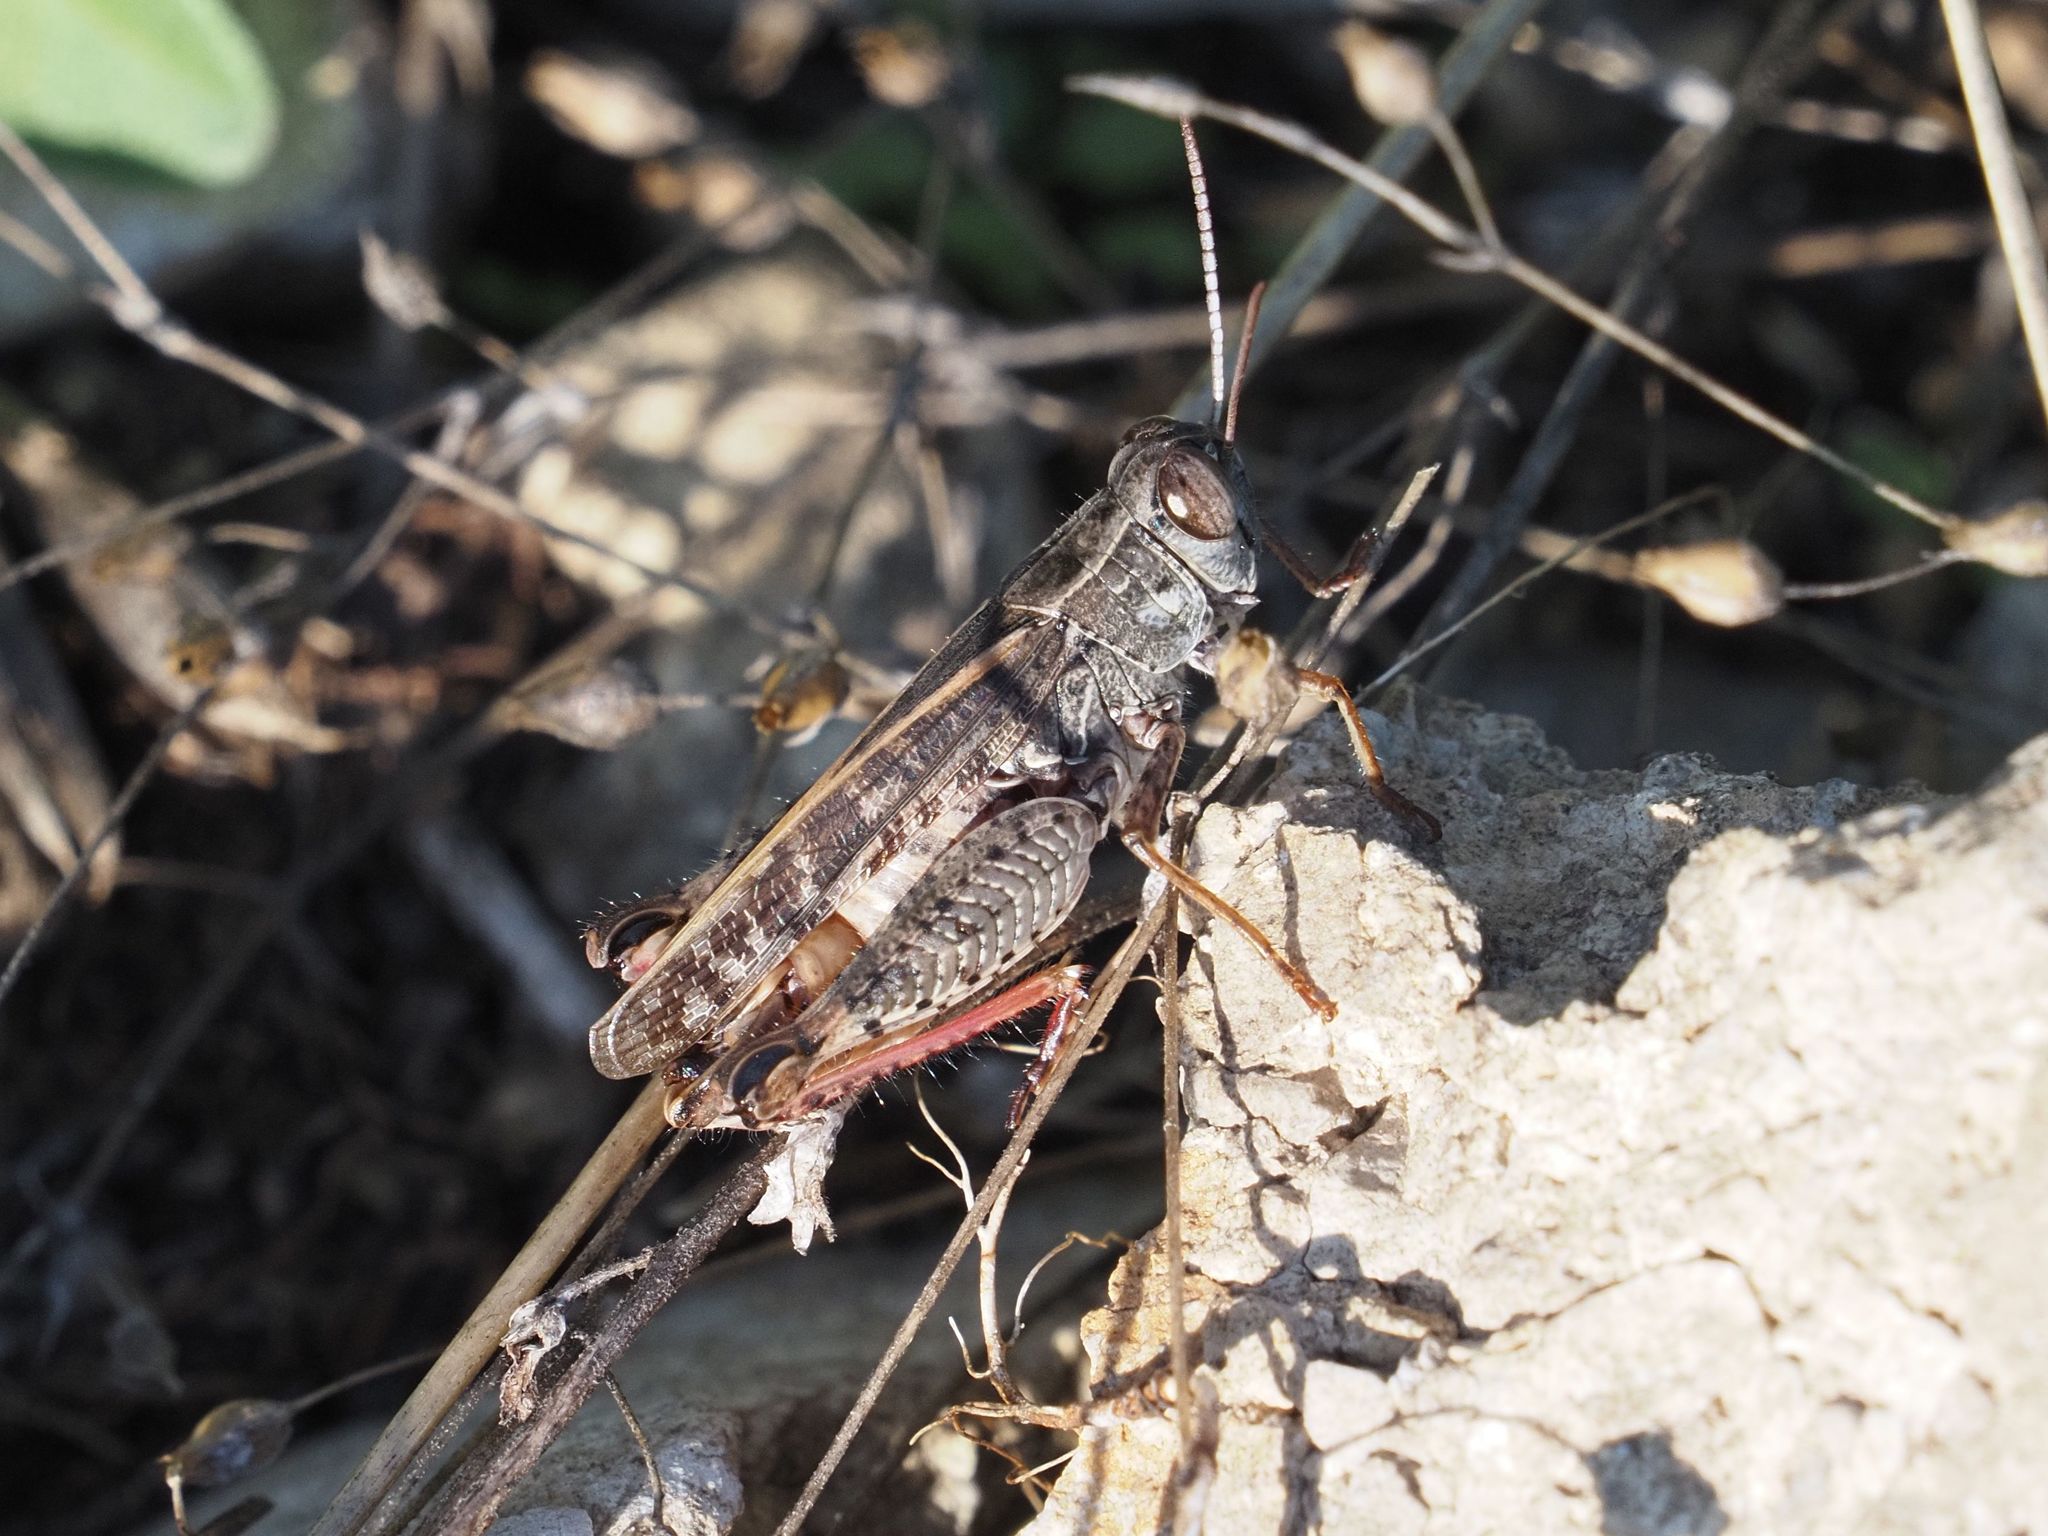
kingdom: Animalia
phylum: Arthropoda
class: Insecta
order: Orthoptera
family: Acrididae
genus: Calliptamus
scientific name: Calliptamus italicus
